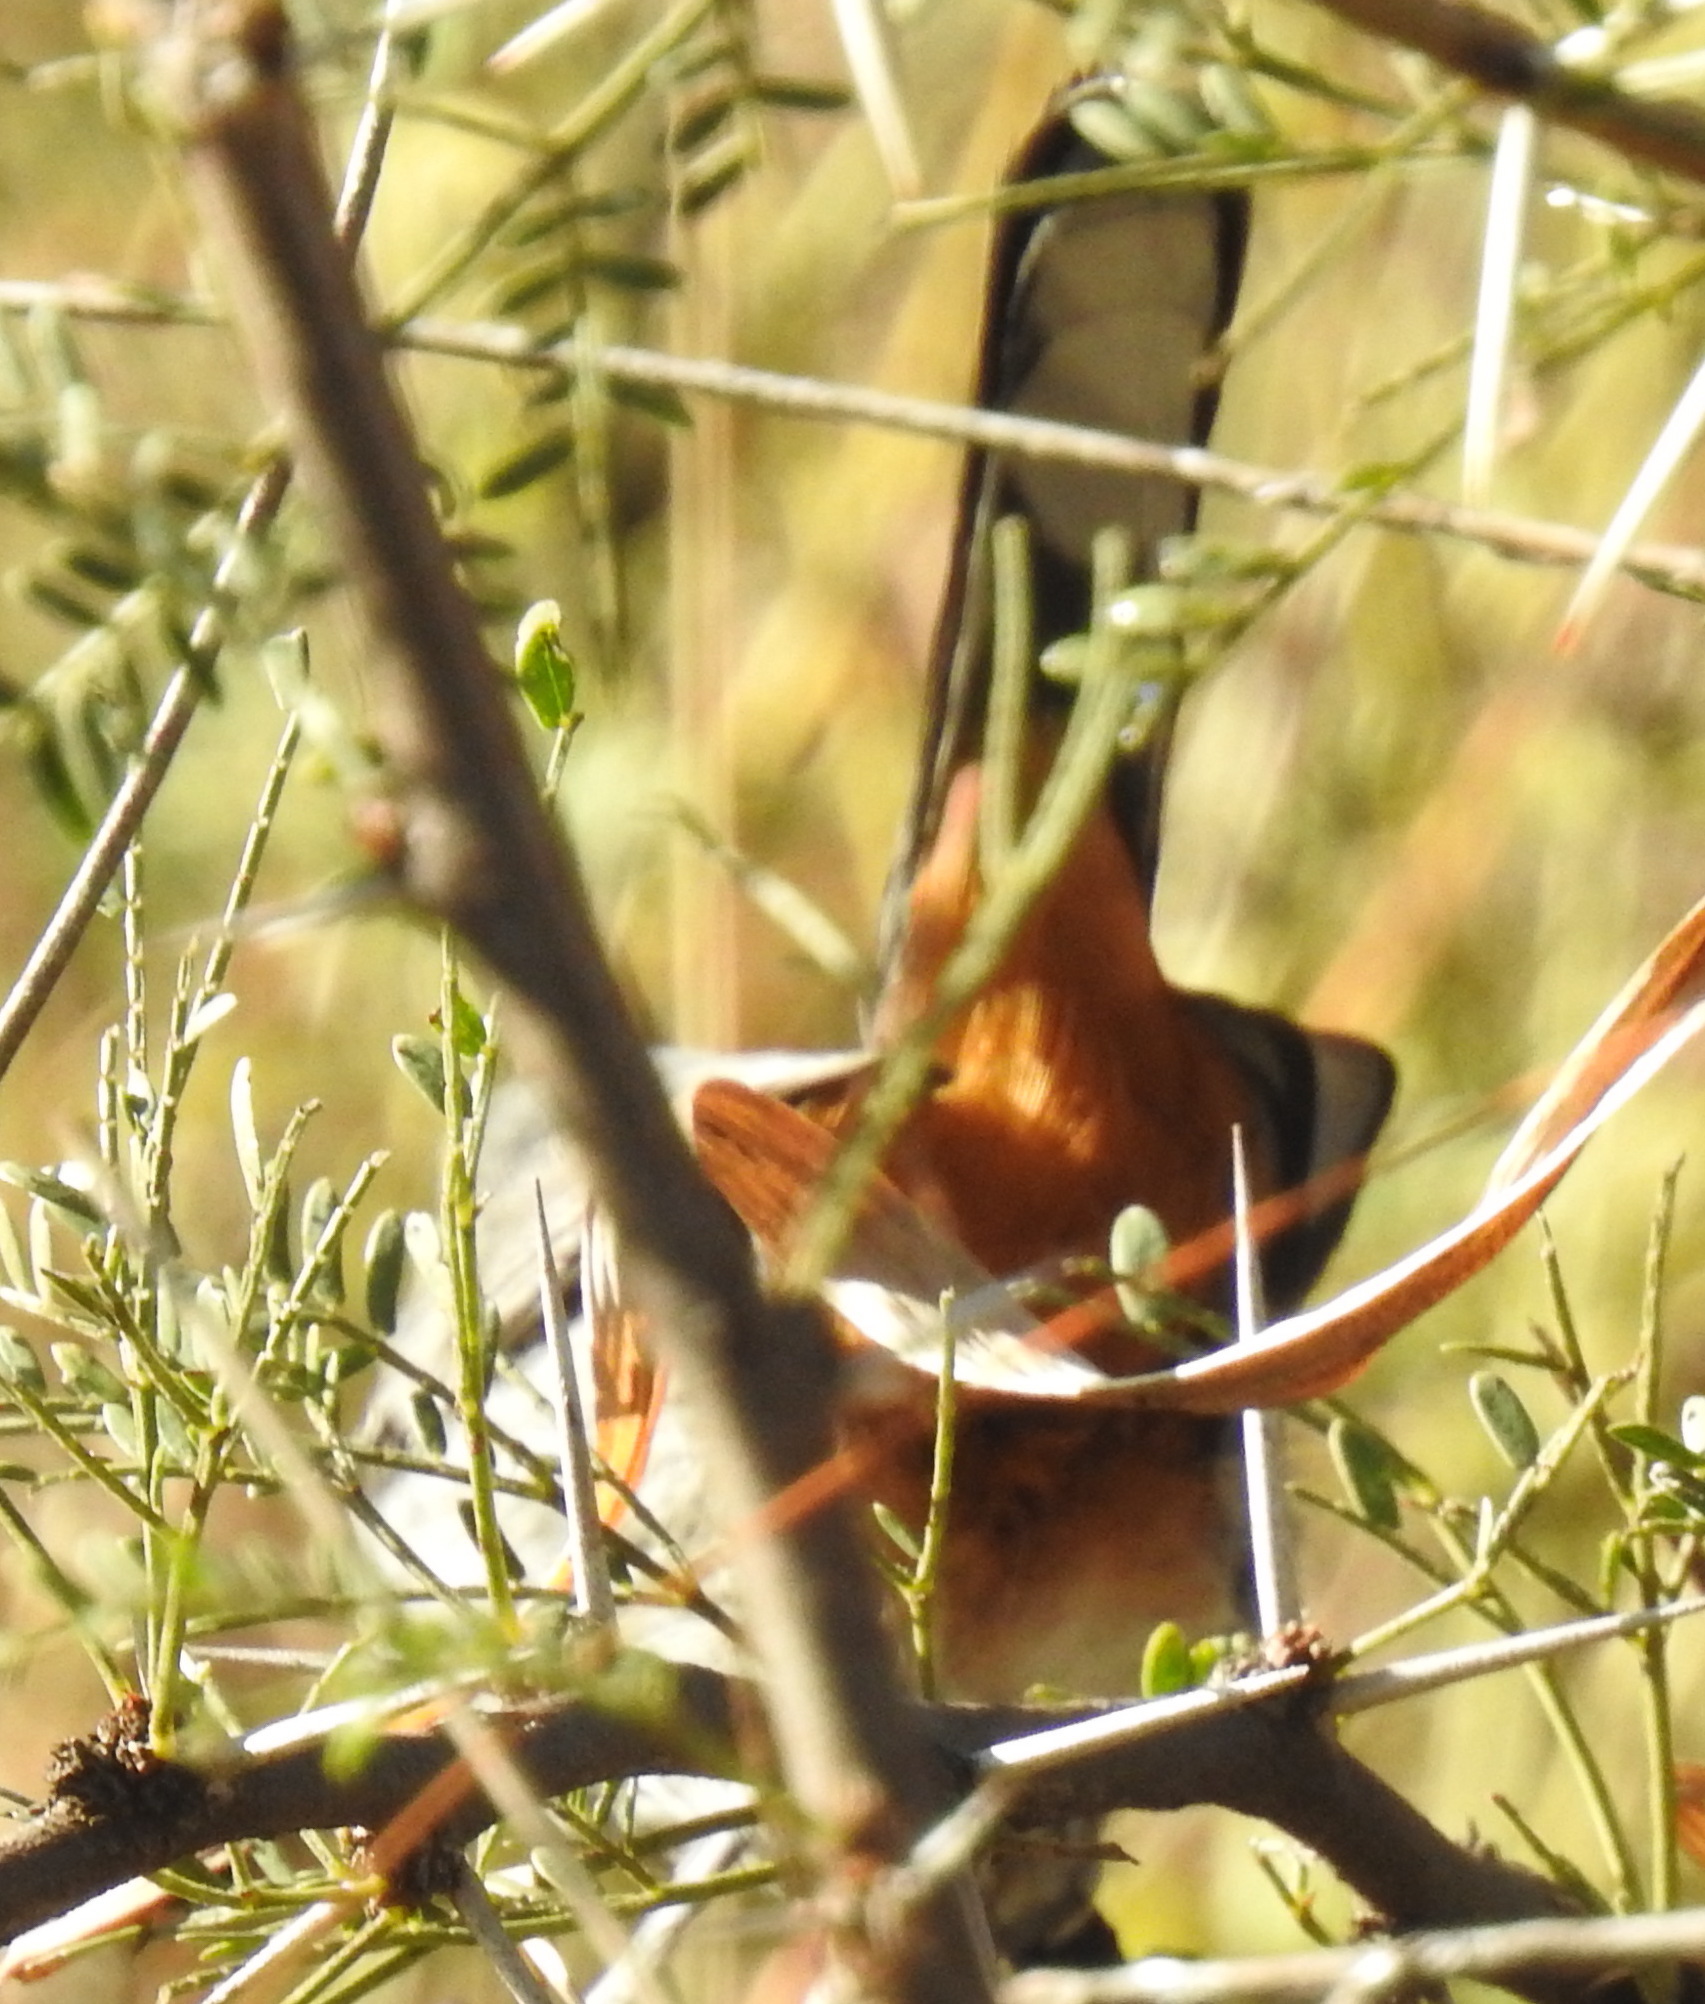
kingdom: Animalia
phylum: Chordata
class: Aves
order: Passeriformes
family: Sylviidae
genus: Curruca
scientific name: Curruca subcoerulea
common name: Chestnut-vented warbler
